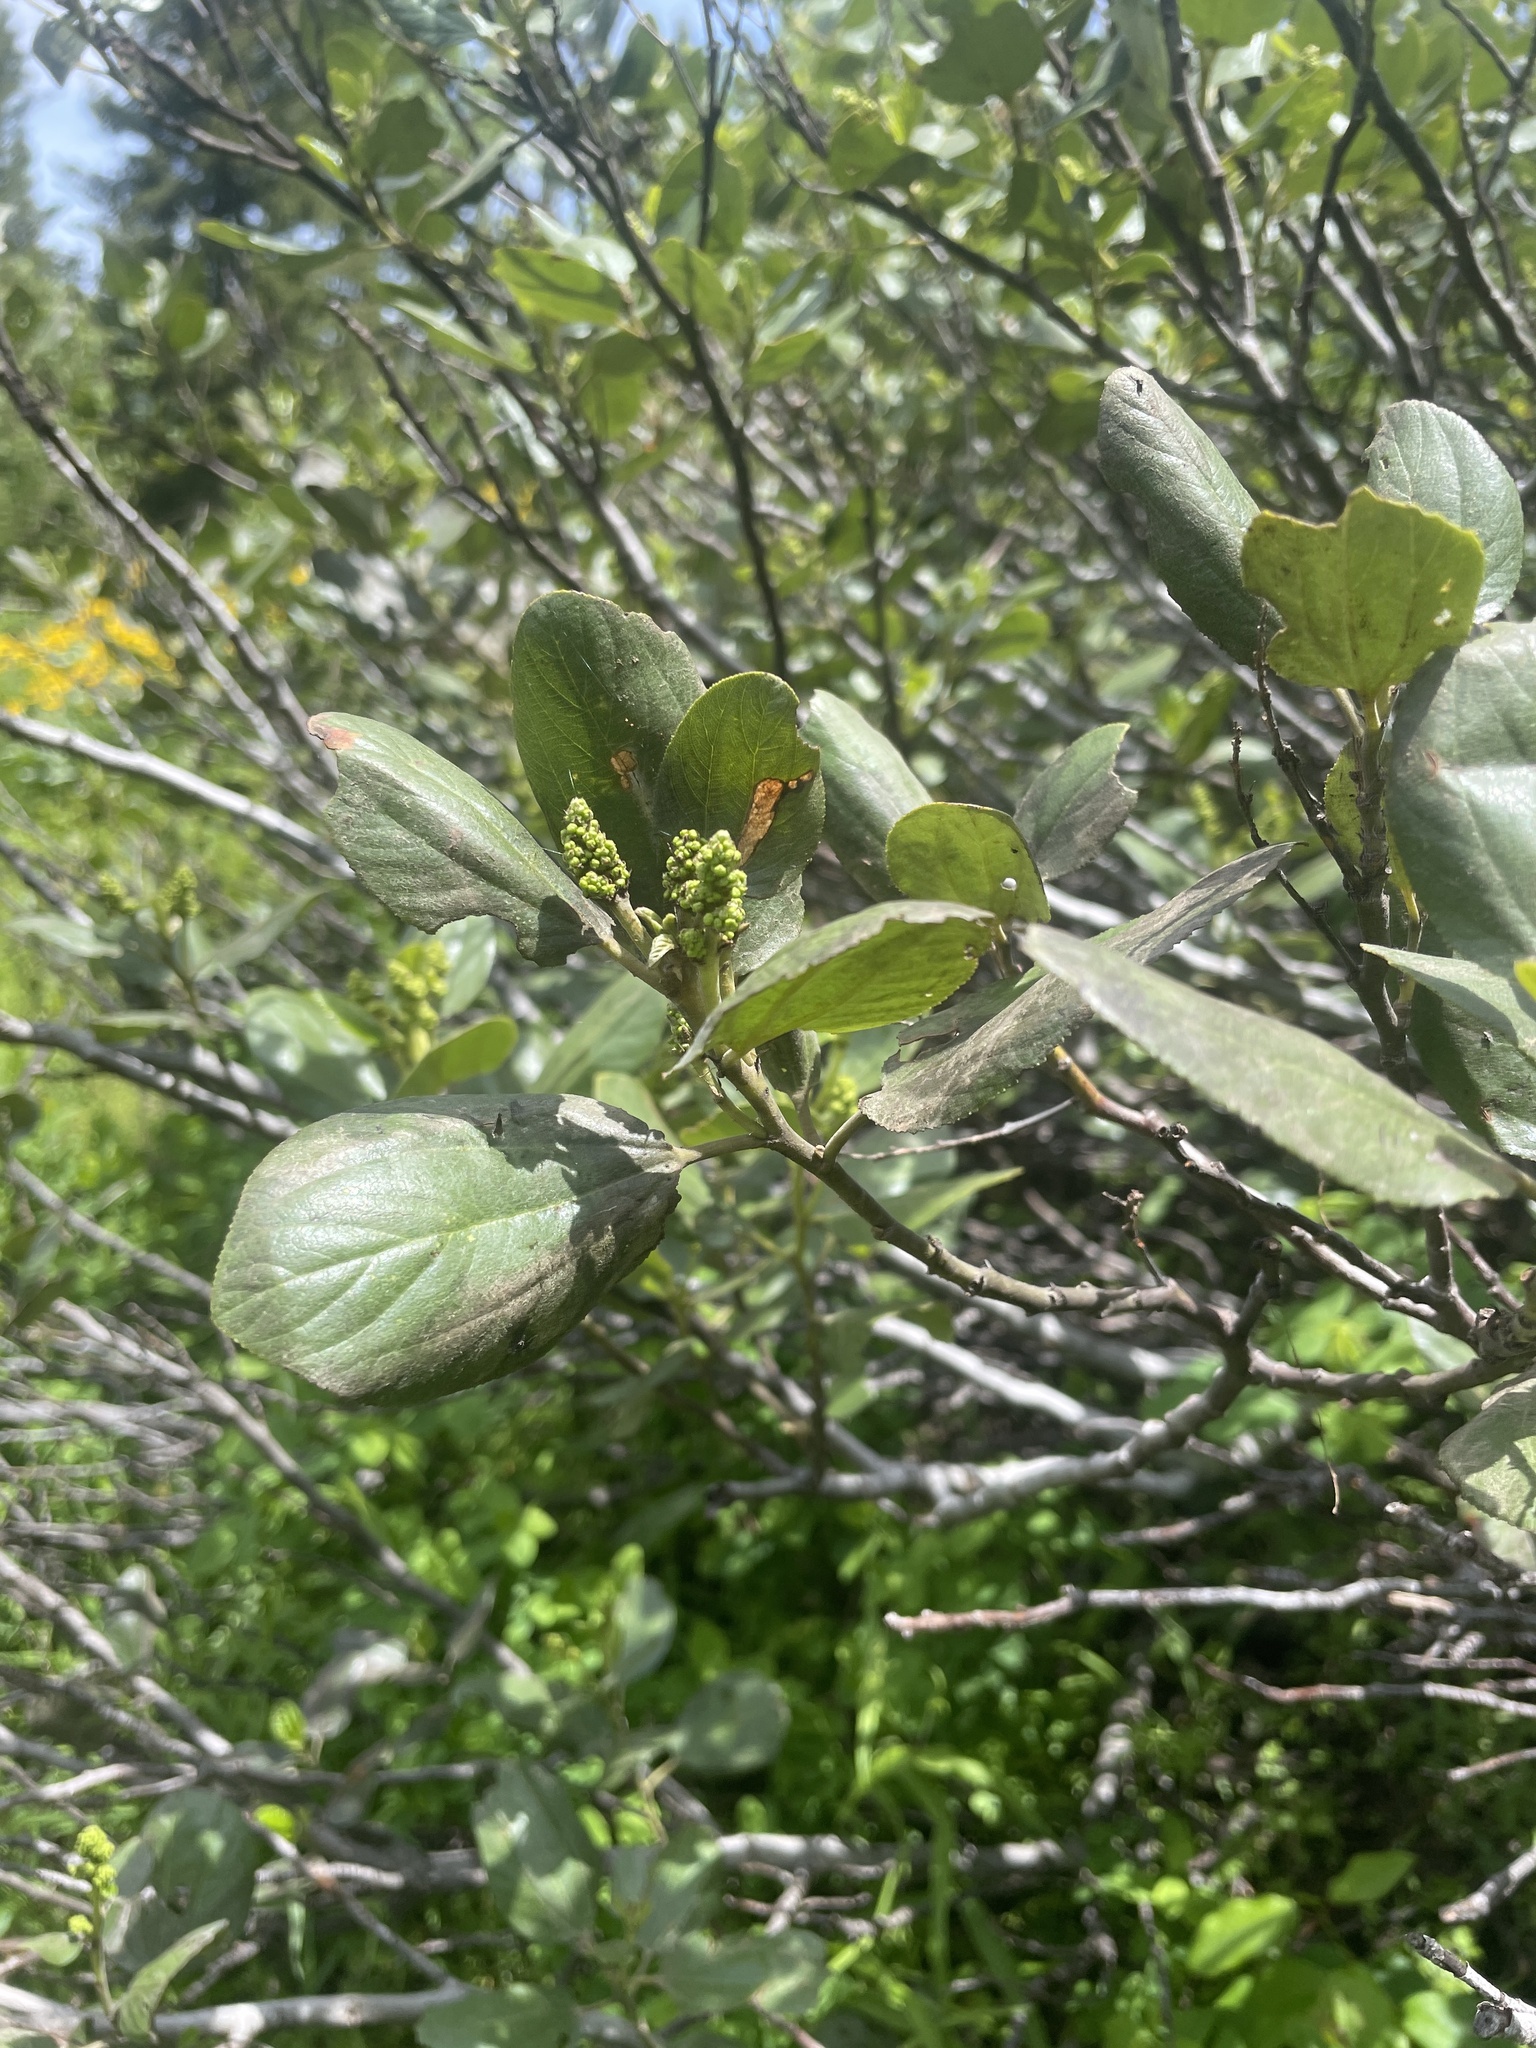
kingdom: Plantae
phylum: Tracheophyta
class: Magnoliopsida
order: Rosales
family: Rhamnaceae
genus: Ceanothus
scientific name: Ceanothus velutinus
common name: Snowbrush
